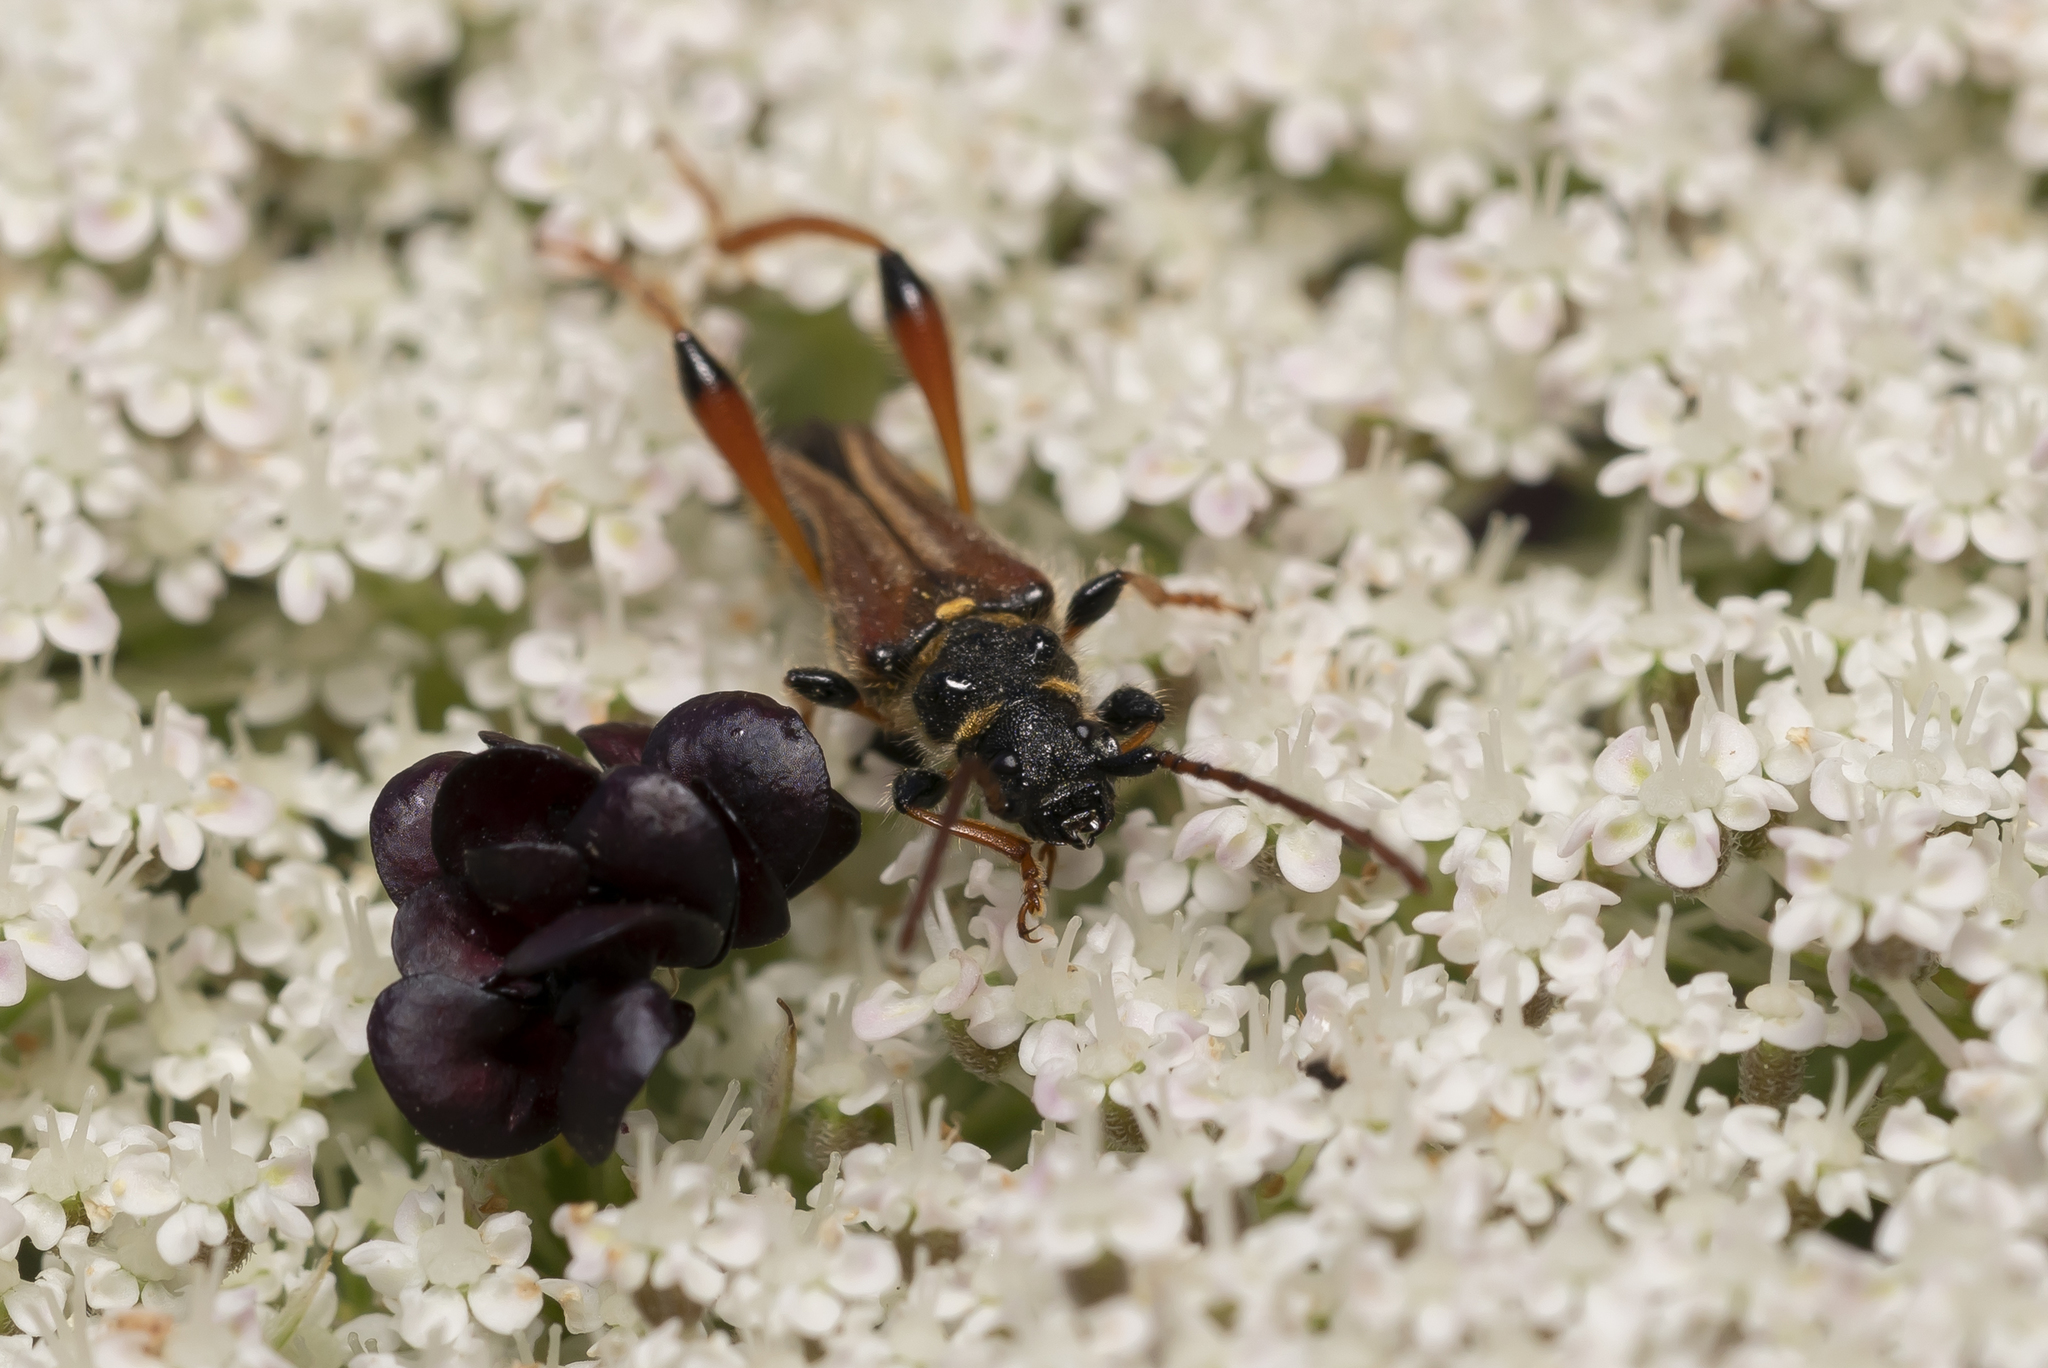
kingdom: Animalia
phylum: Arthropoda
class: Insecta
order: Coleoptera
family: Cerambycidae
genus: Stenopterus
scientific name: Stenopterus rufus
